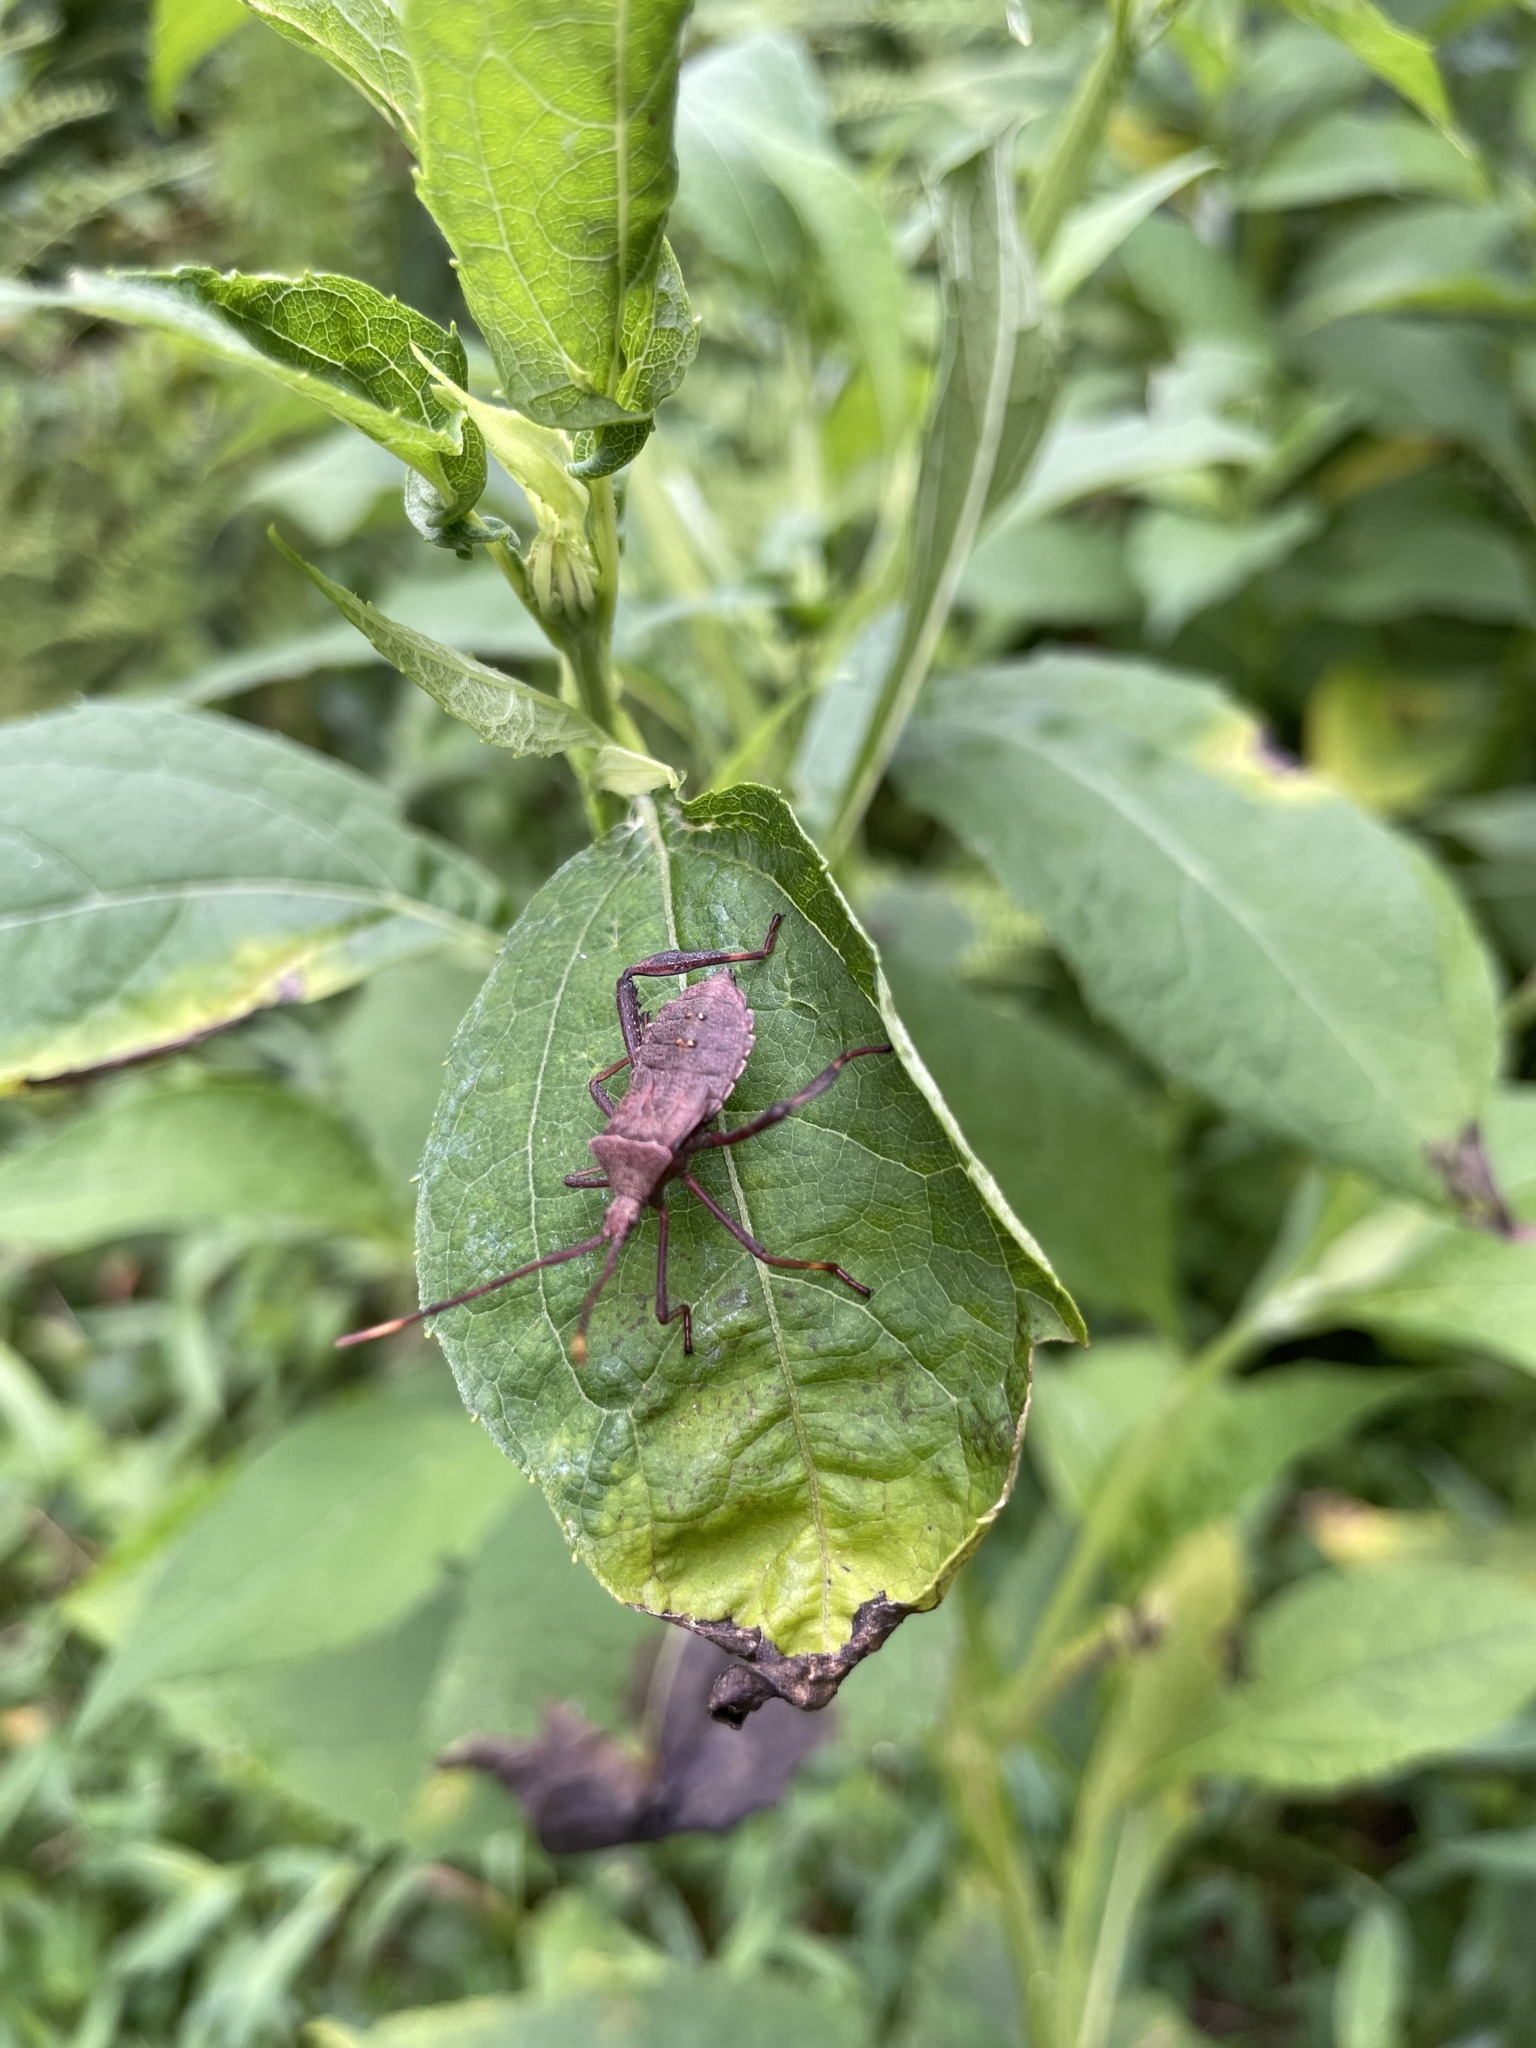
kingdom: Animalia
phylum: Arthropoda
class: Insecta
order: Hemiptera
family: Coreidae
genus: Acanthocephala
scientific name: Acanthocephala terminalis
